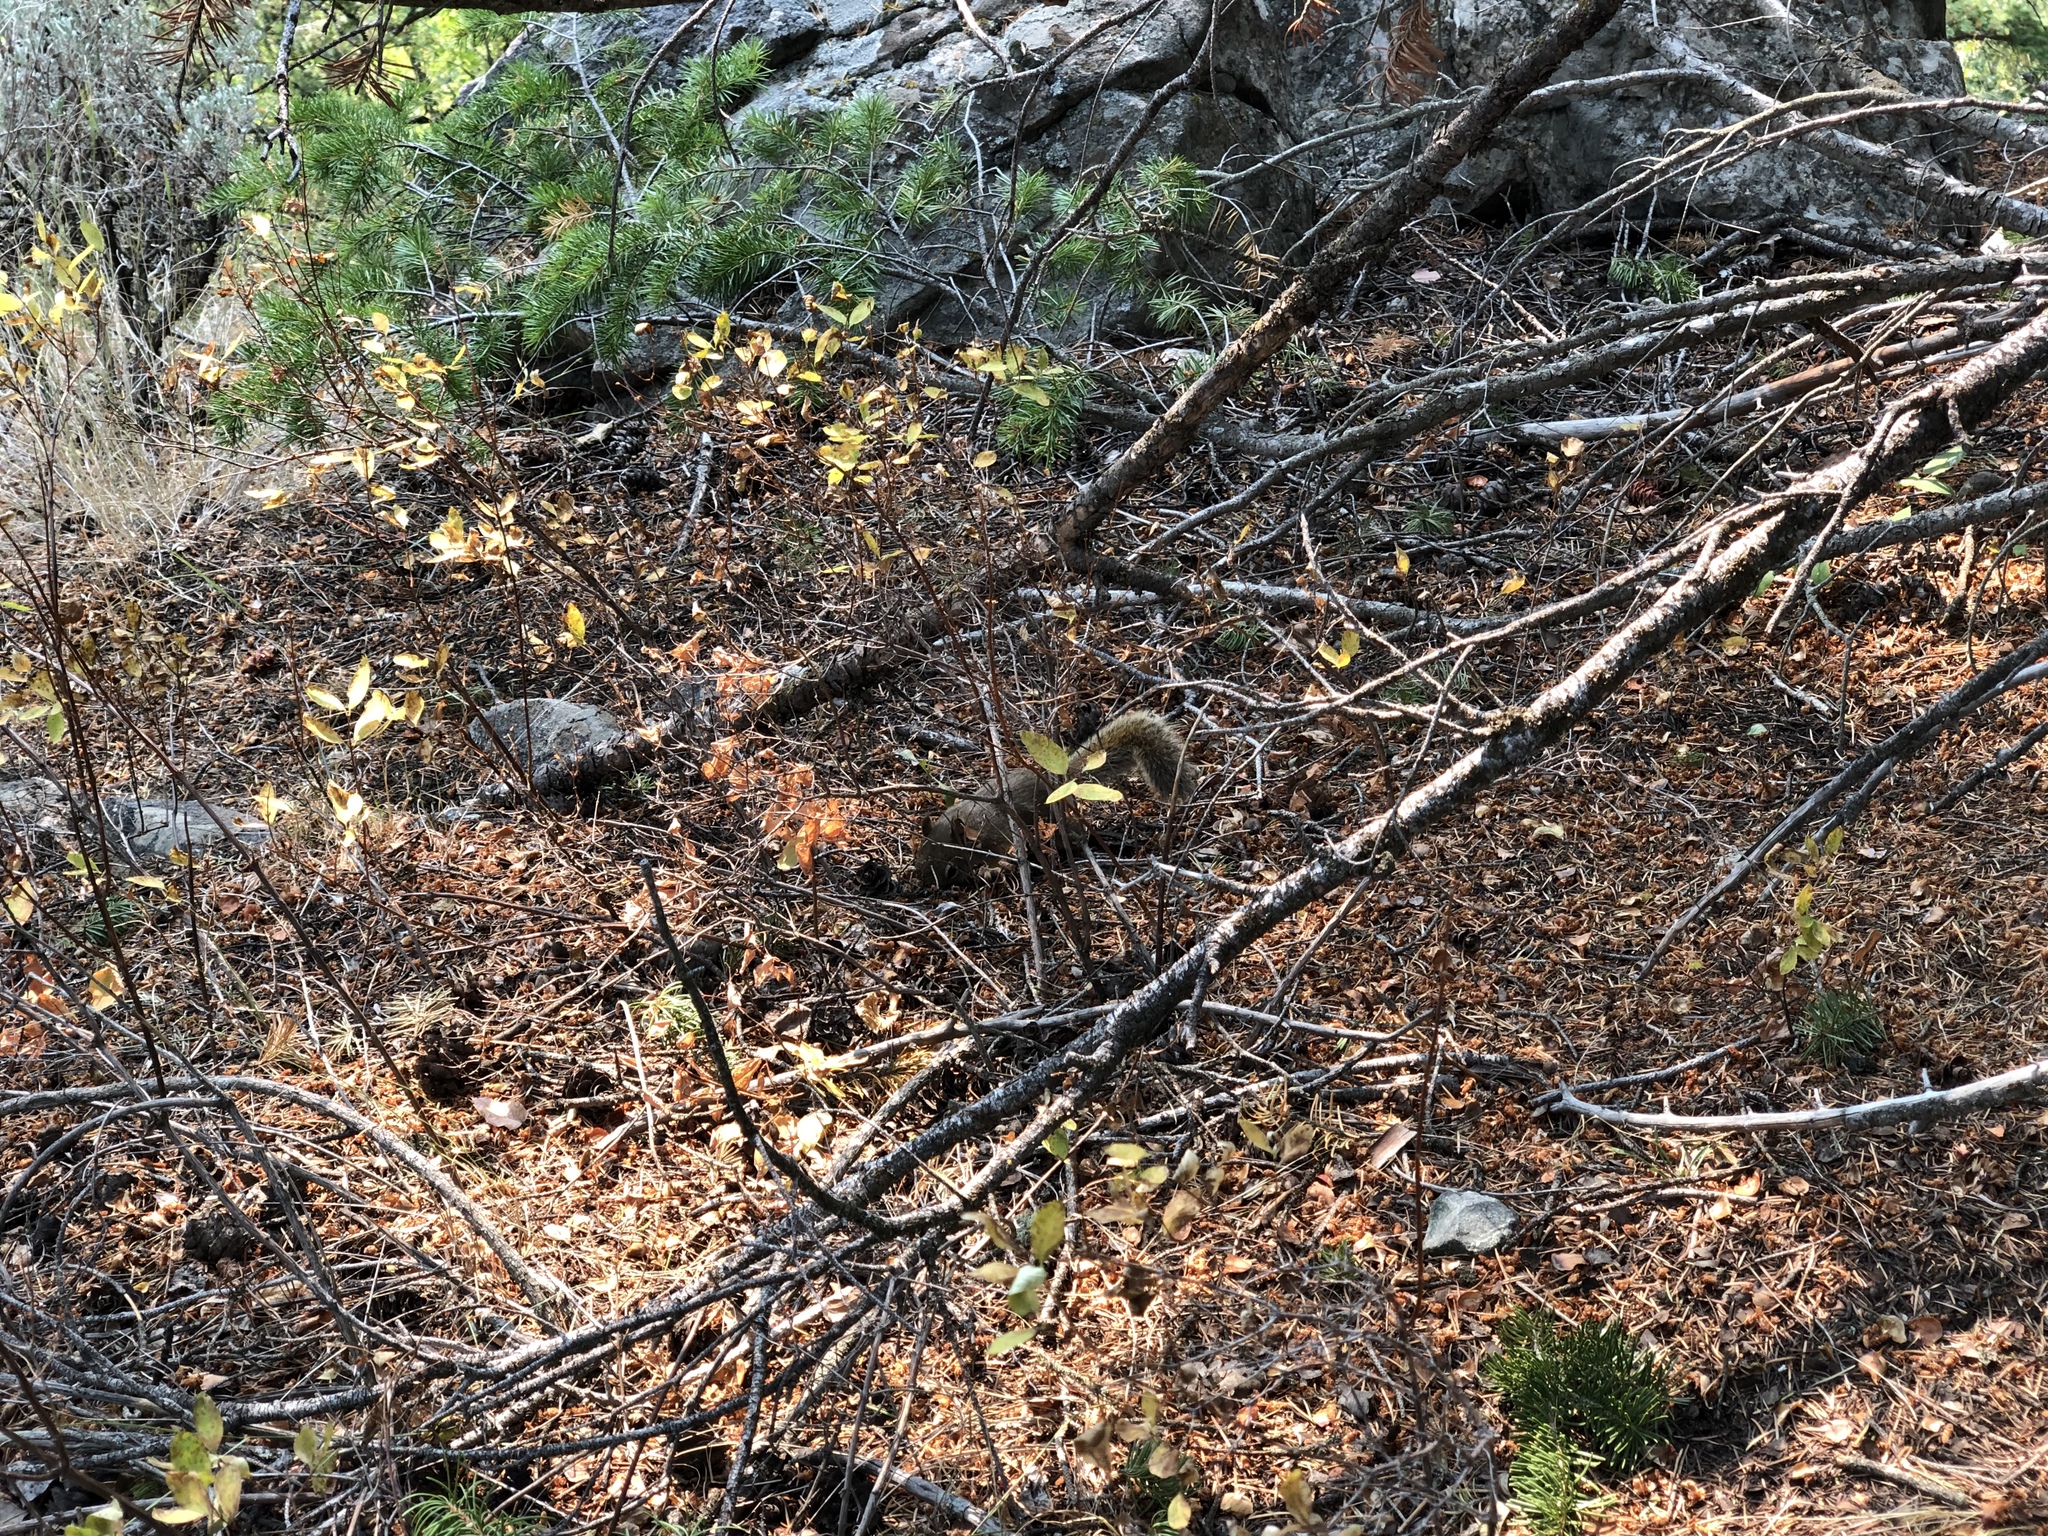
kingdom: Animalia
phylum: Chordata
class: Mammalia
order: Rodentia
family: Sciuridae
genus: Tamiasciurus
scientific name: Tamiasciurus hudsonicus
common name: Red squirrel
